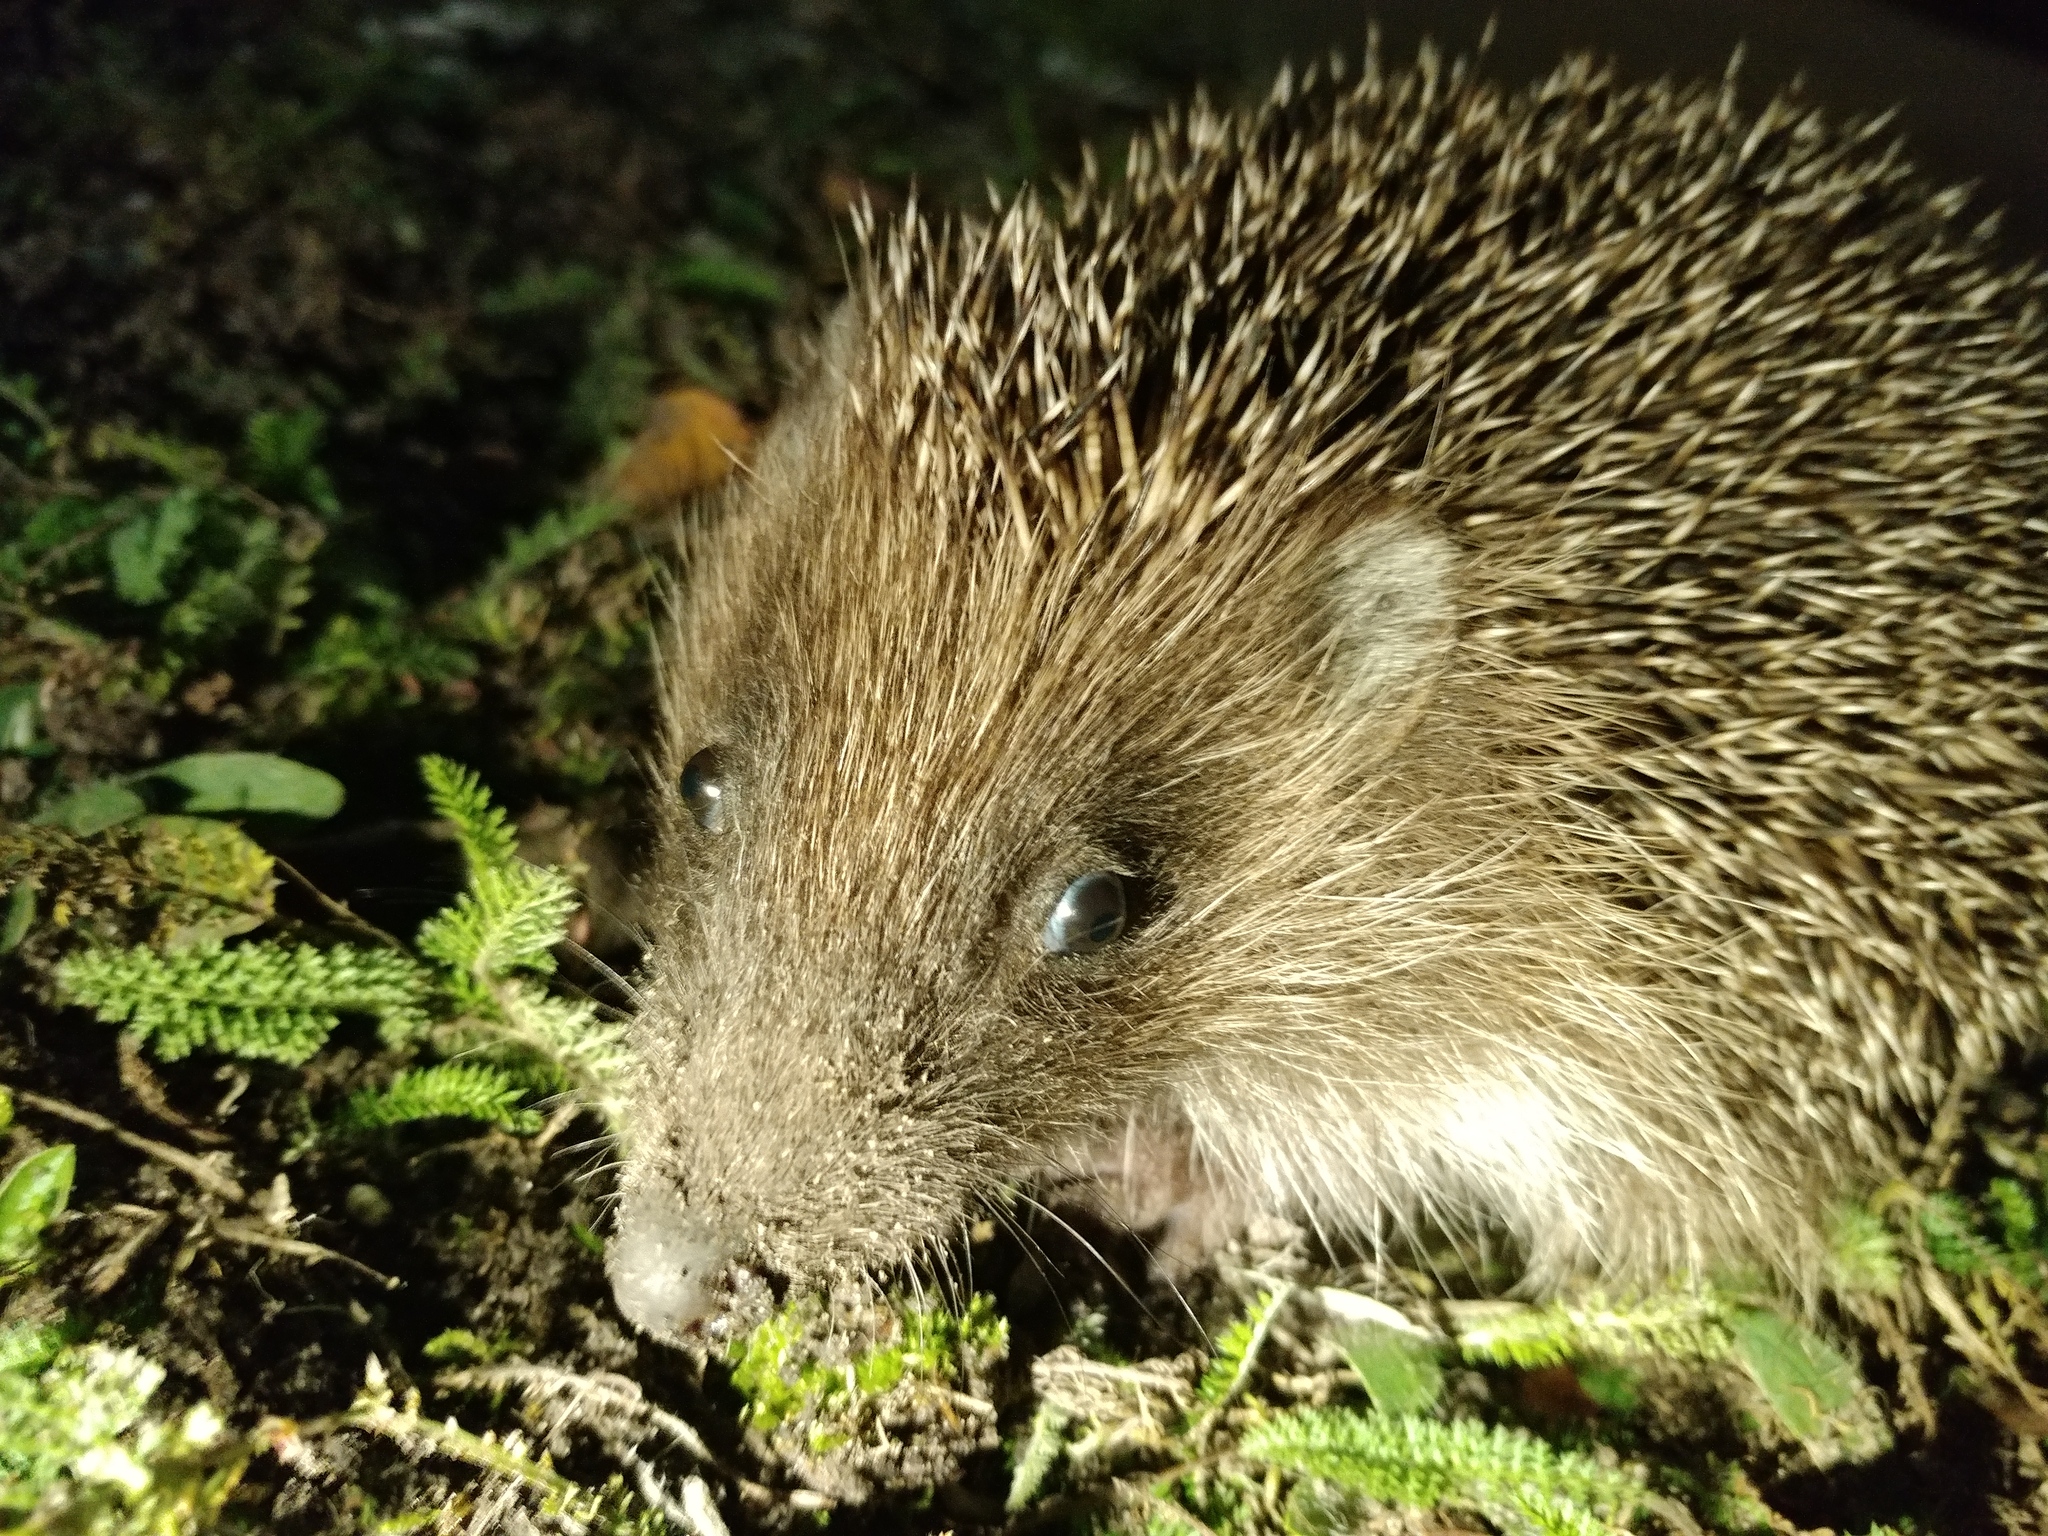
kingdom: Animalia
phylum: Chordata
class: Mammalia
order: Erinaceomorpha
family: Erinaceidae
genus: Erinaceus
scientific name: Erinaceus roumanicus
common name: Northern white-breasted hedgehog
